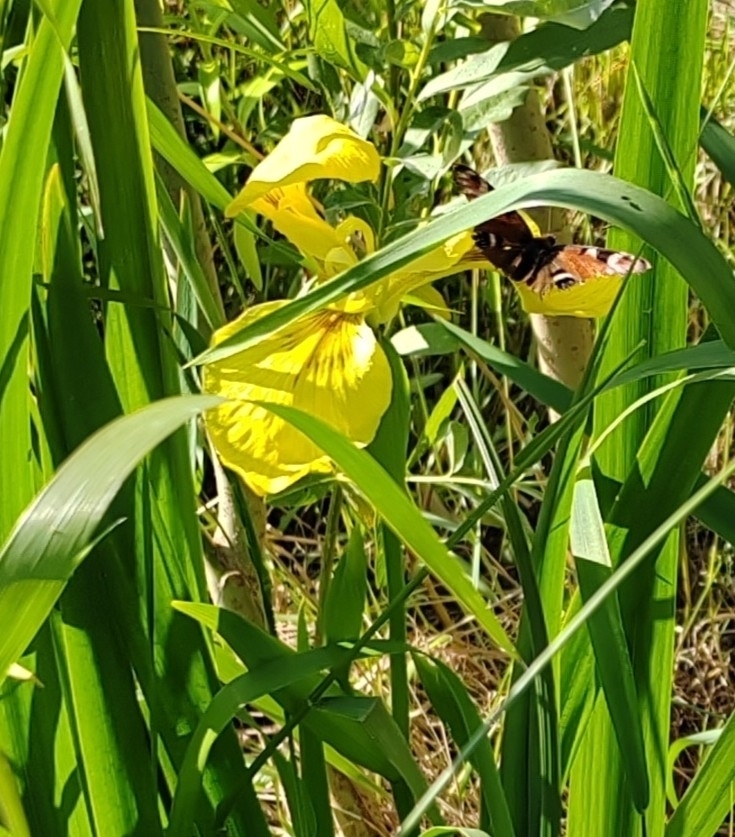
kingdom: Animalia
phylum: Arthropoda
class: Insecta
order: Lepidoptera
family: Nymphalidae
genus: Aglais
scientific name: Aglais io
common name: Peacock
